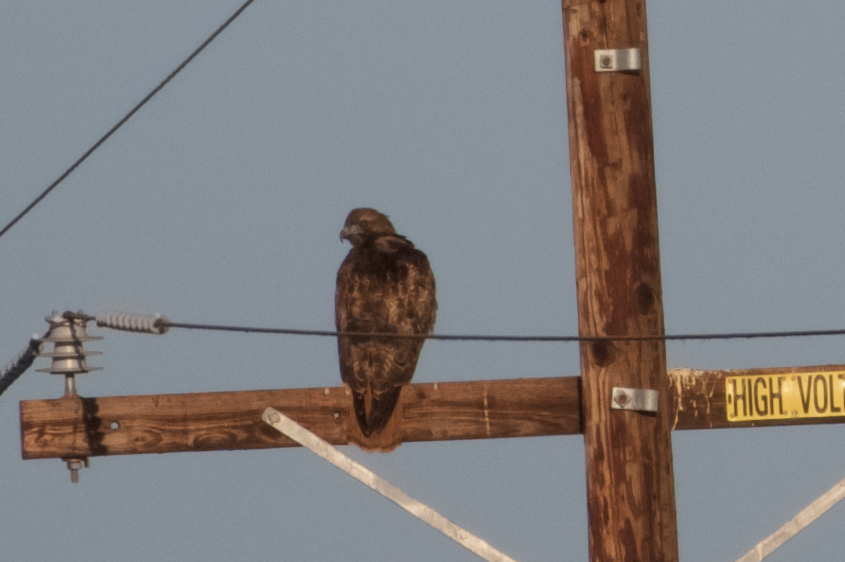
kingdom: Animalia
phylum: Chordata
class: Aves
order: Accipitriformes
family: Accipitridae
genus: Buteo
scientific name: Buteo jamaicensis
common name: Red-tailed hawk
